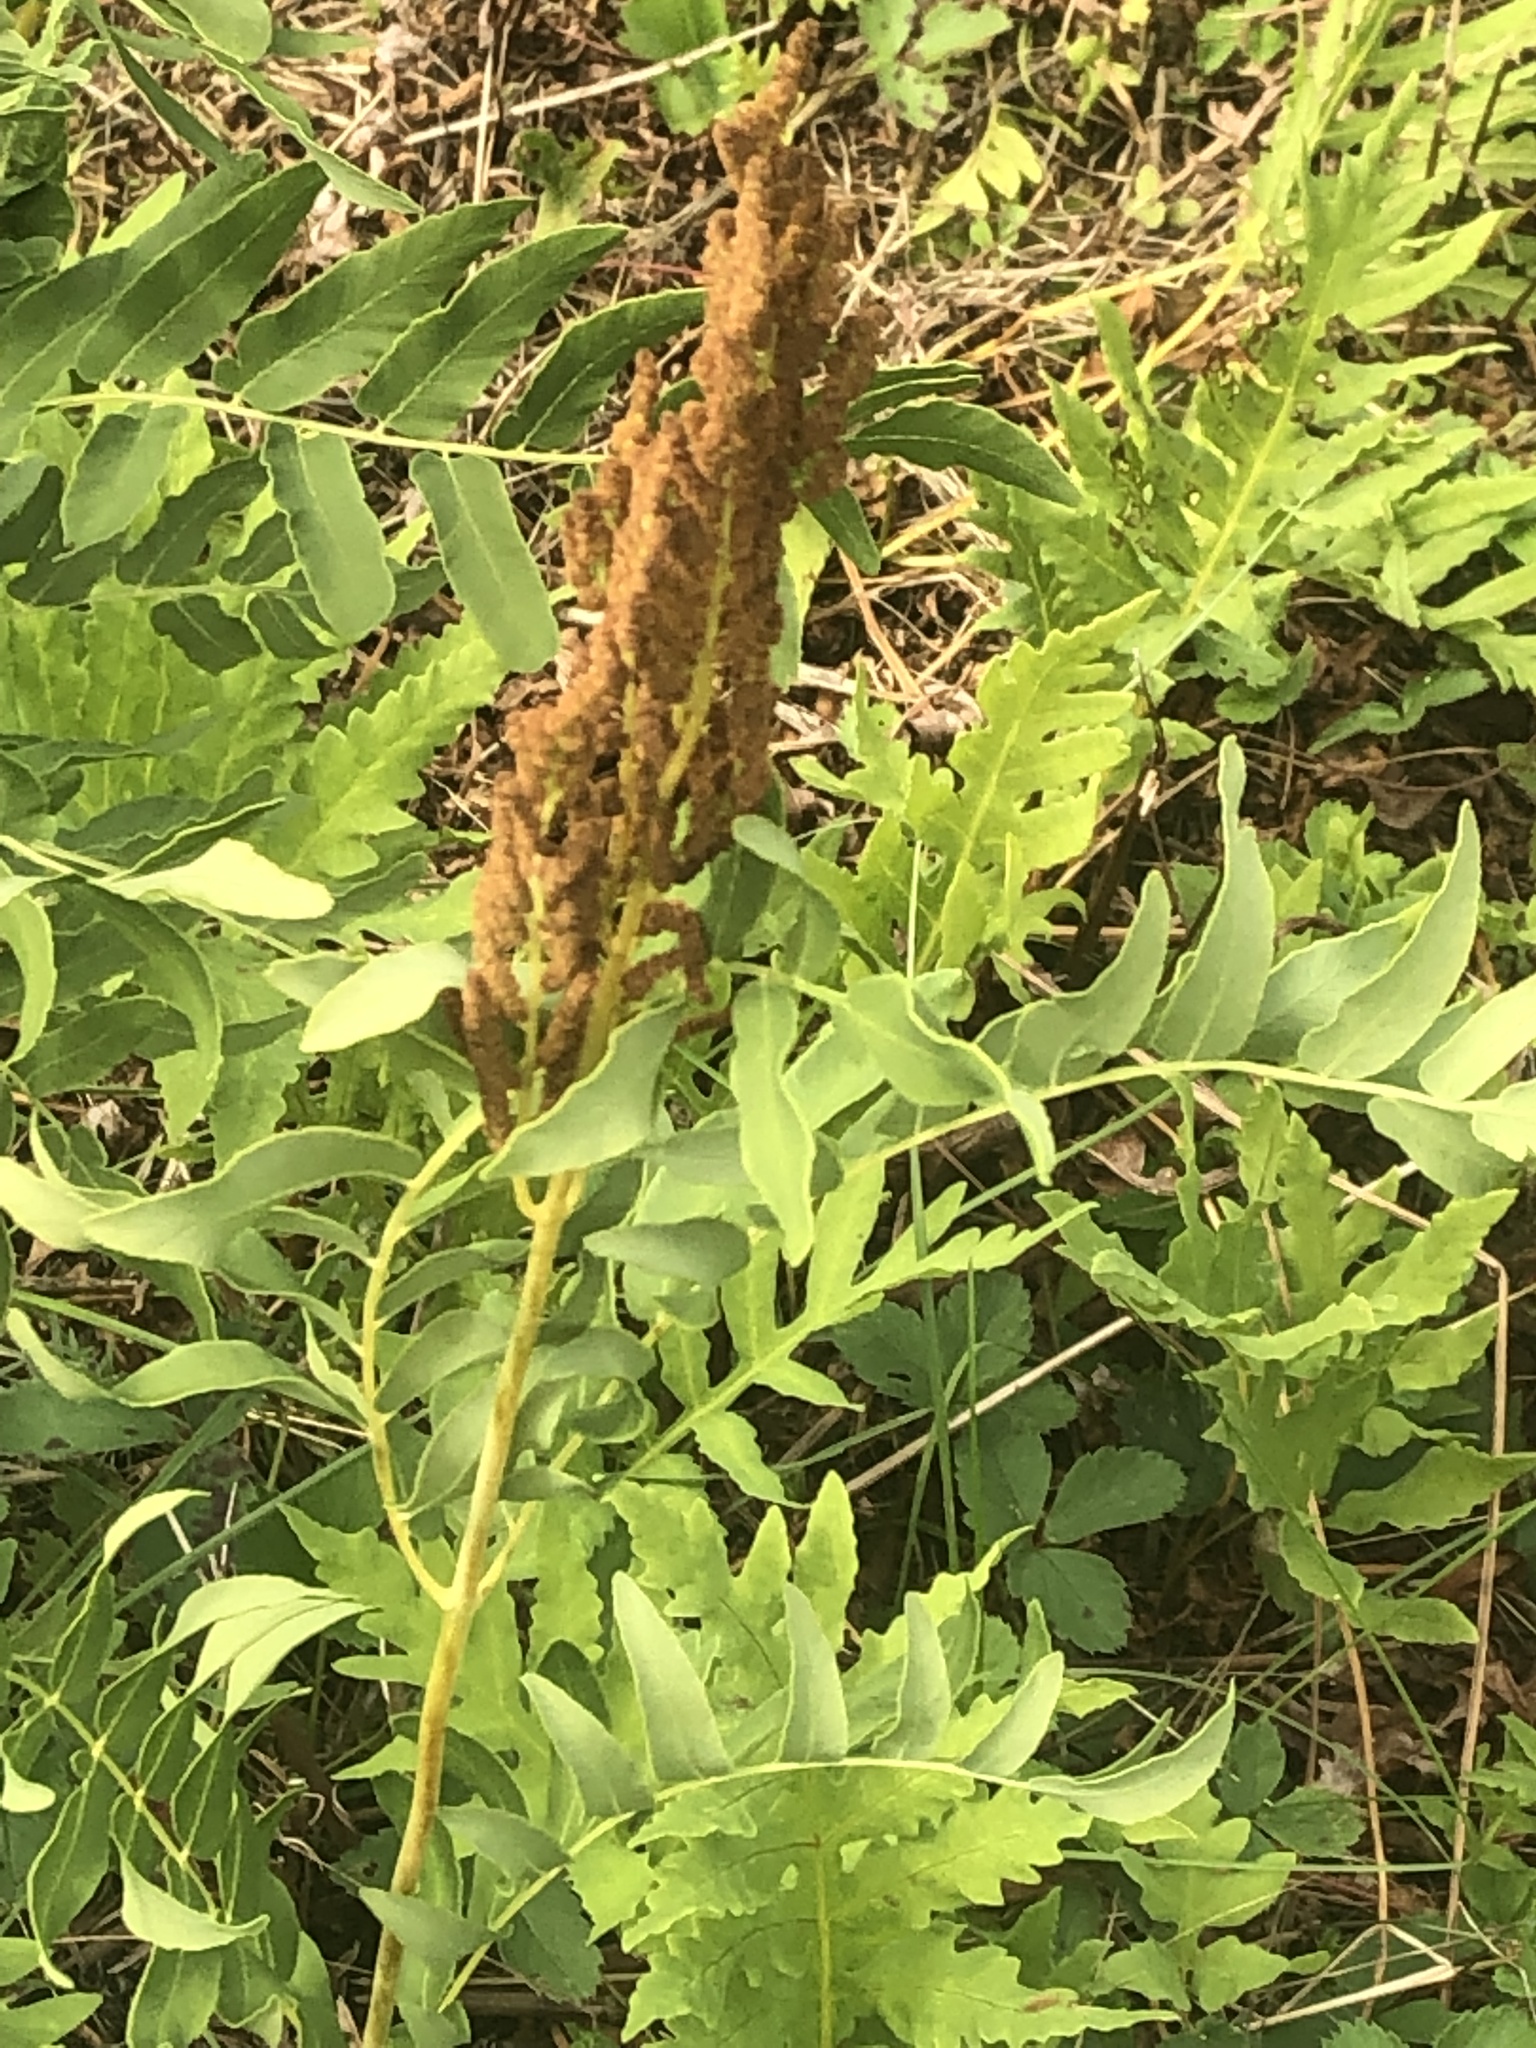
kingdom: Plantae
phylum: Tracheophyta
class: Polypodiopsida
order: Osmundales
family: Osmundaceae
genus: Osmunda
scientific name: Osmunda spectabilis
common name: American royal fern
